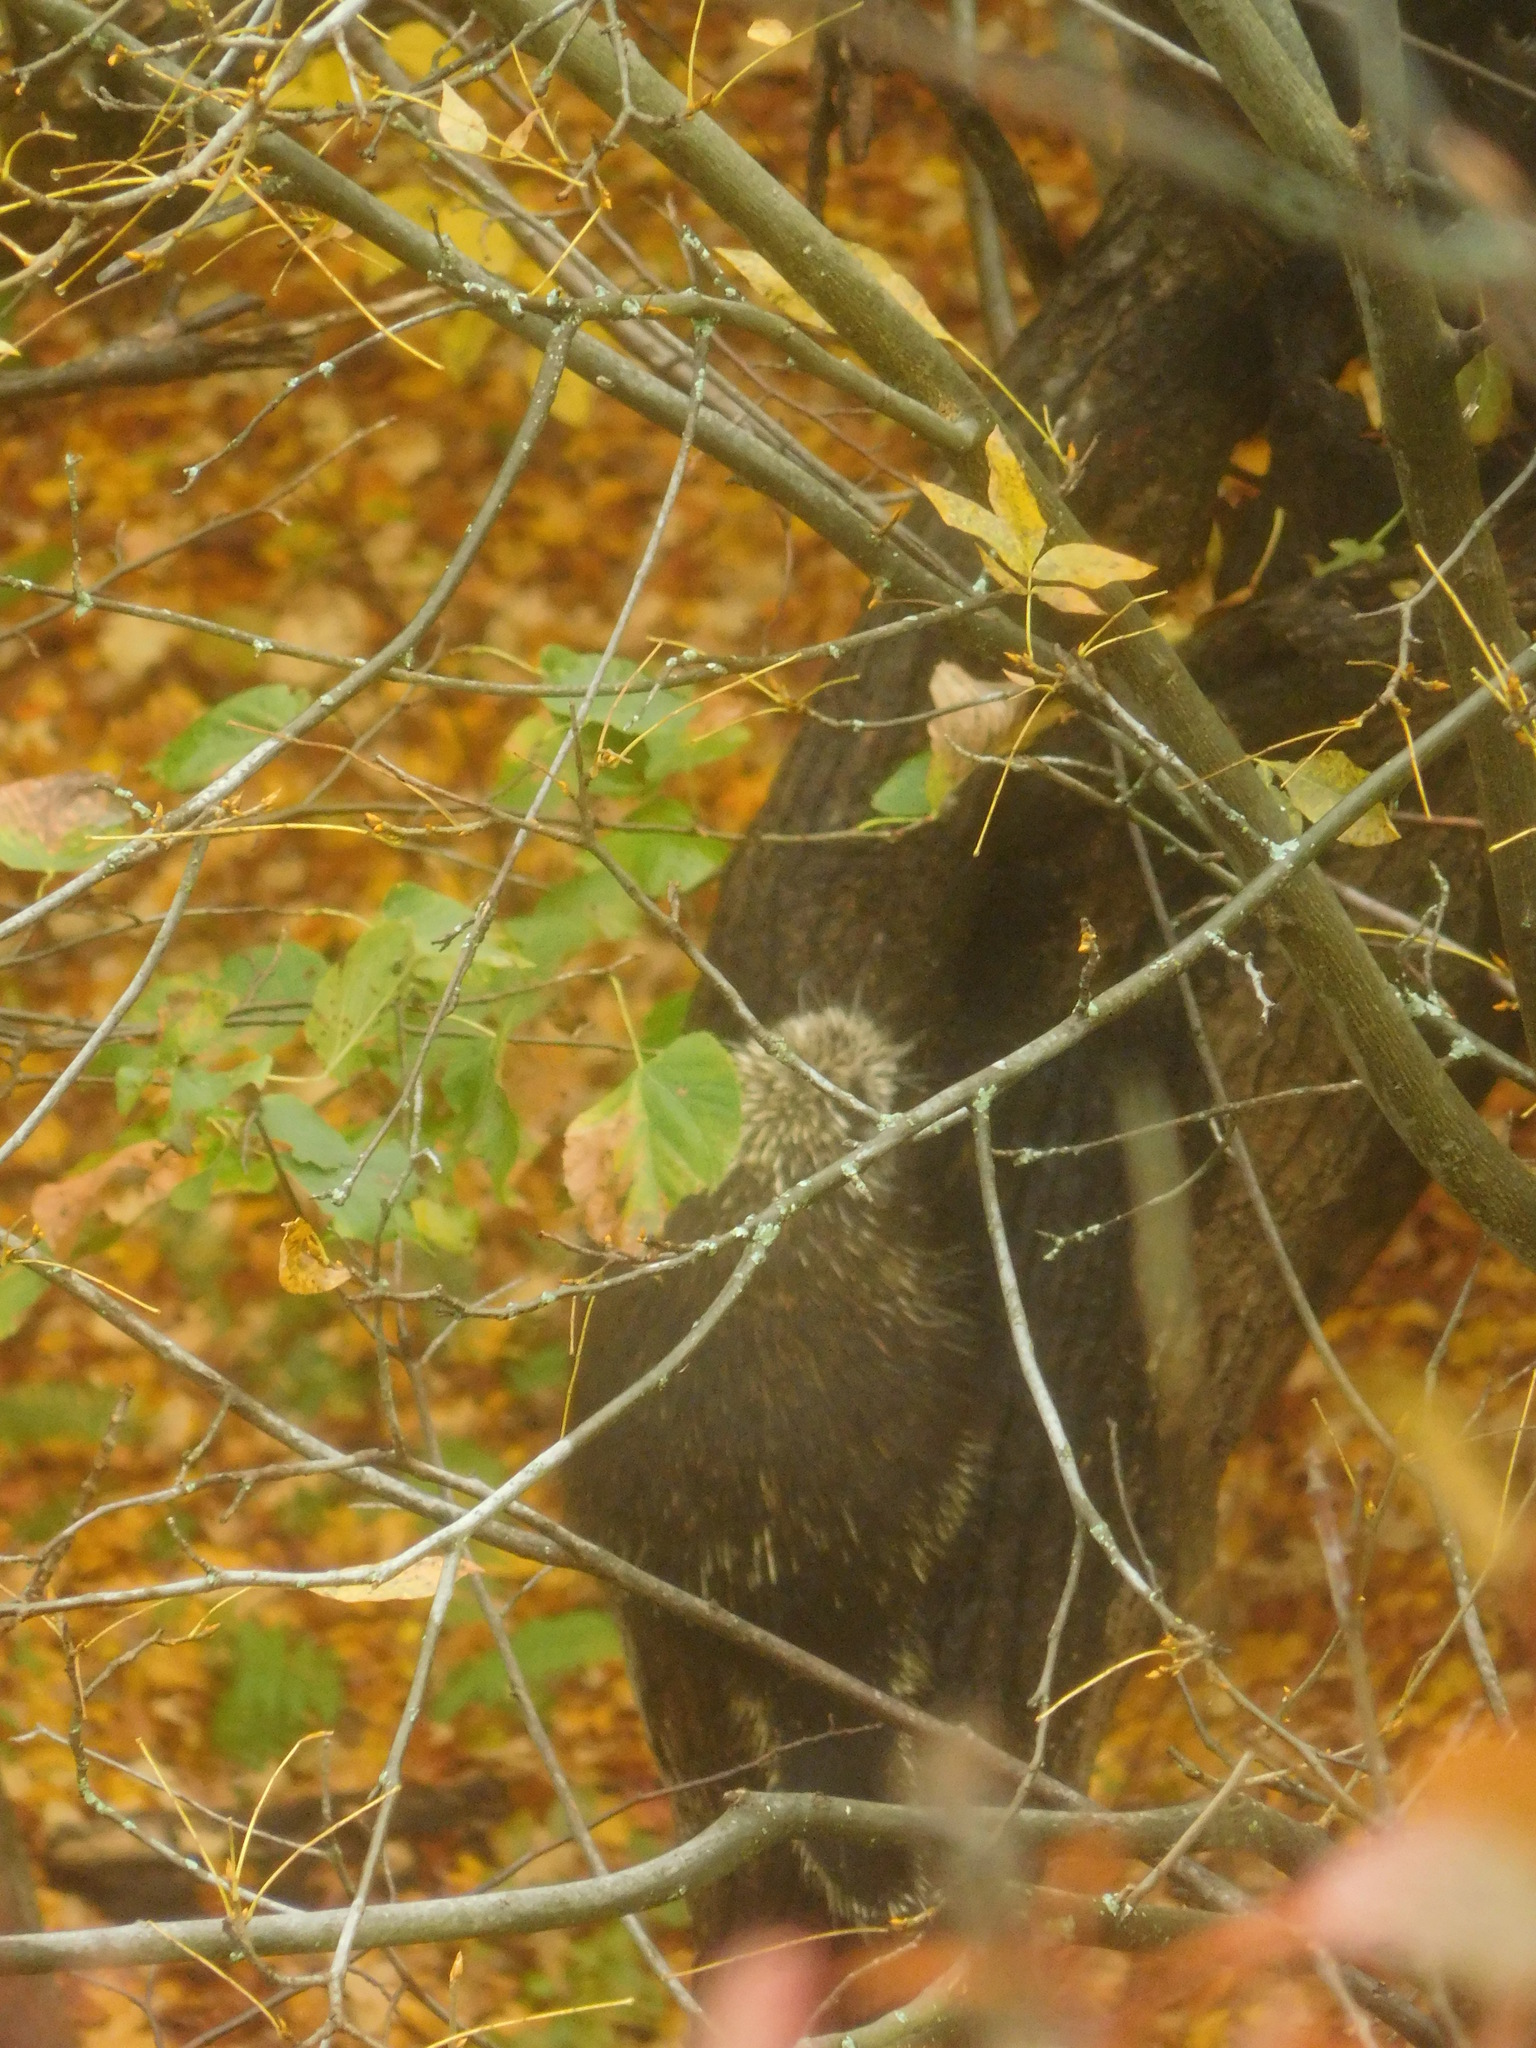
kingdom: Animalia
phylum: Chordata
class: Mammalia
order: Rodentia
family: Erethizontidae
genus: Erethizon
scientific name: Erethizon dorsatus
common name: North american porcupine
